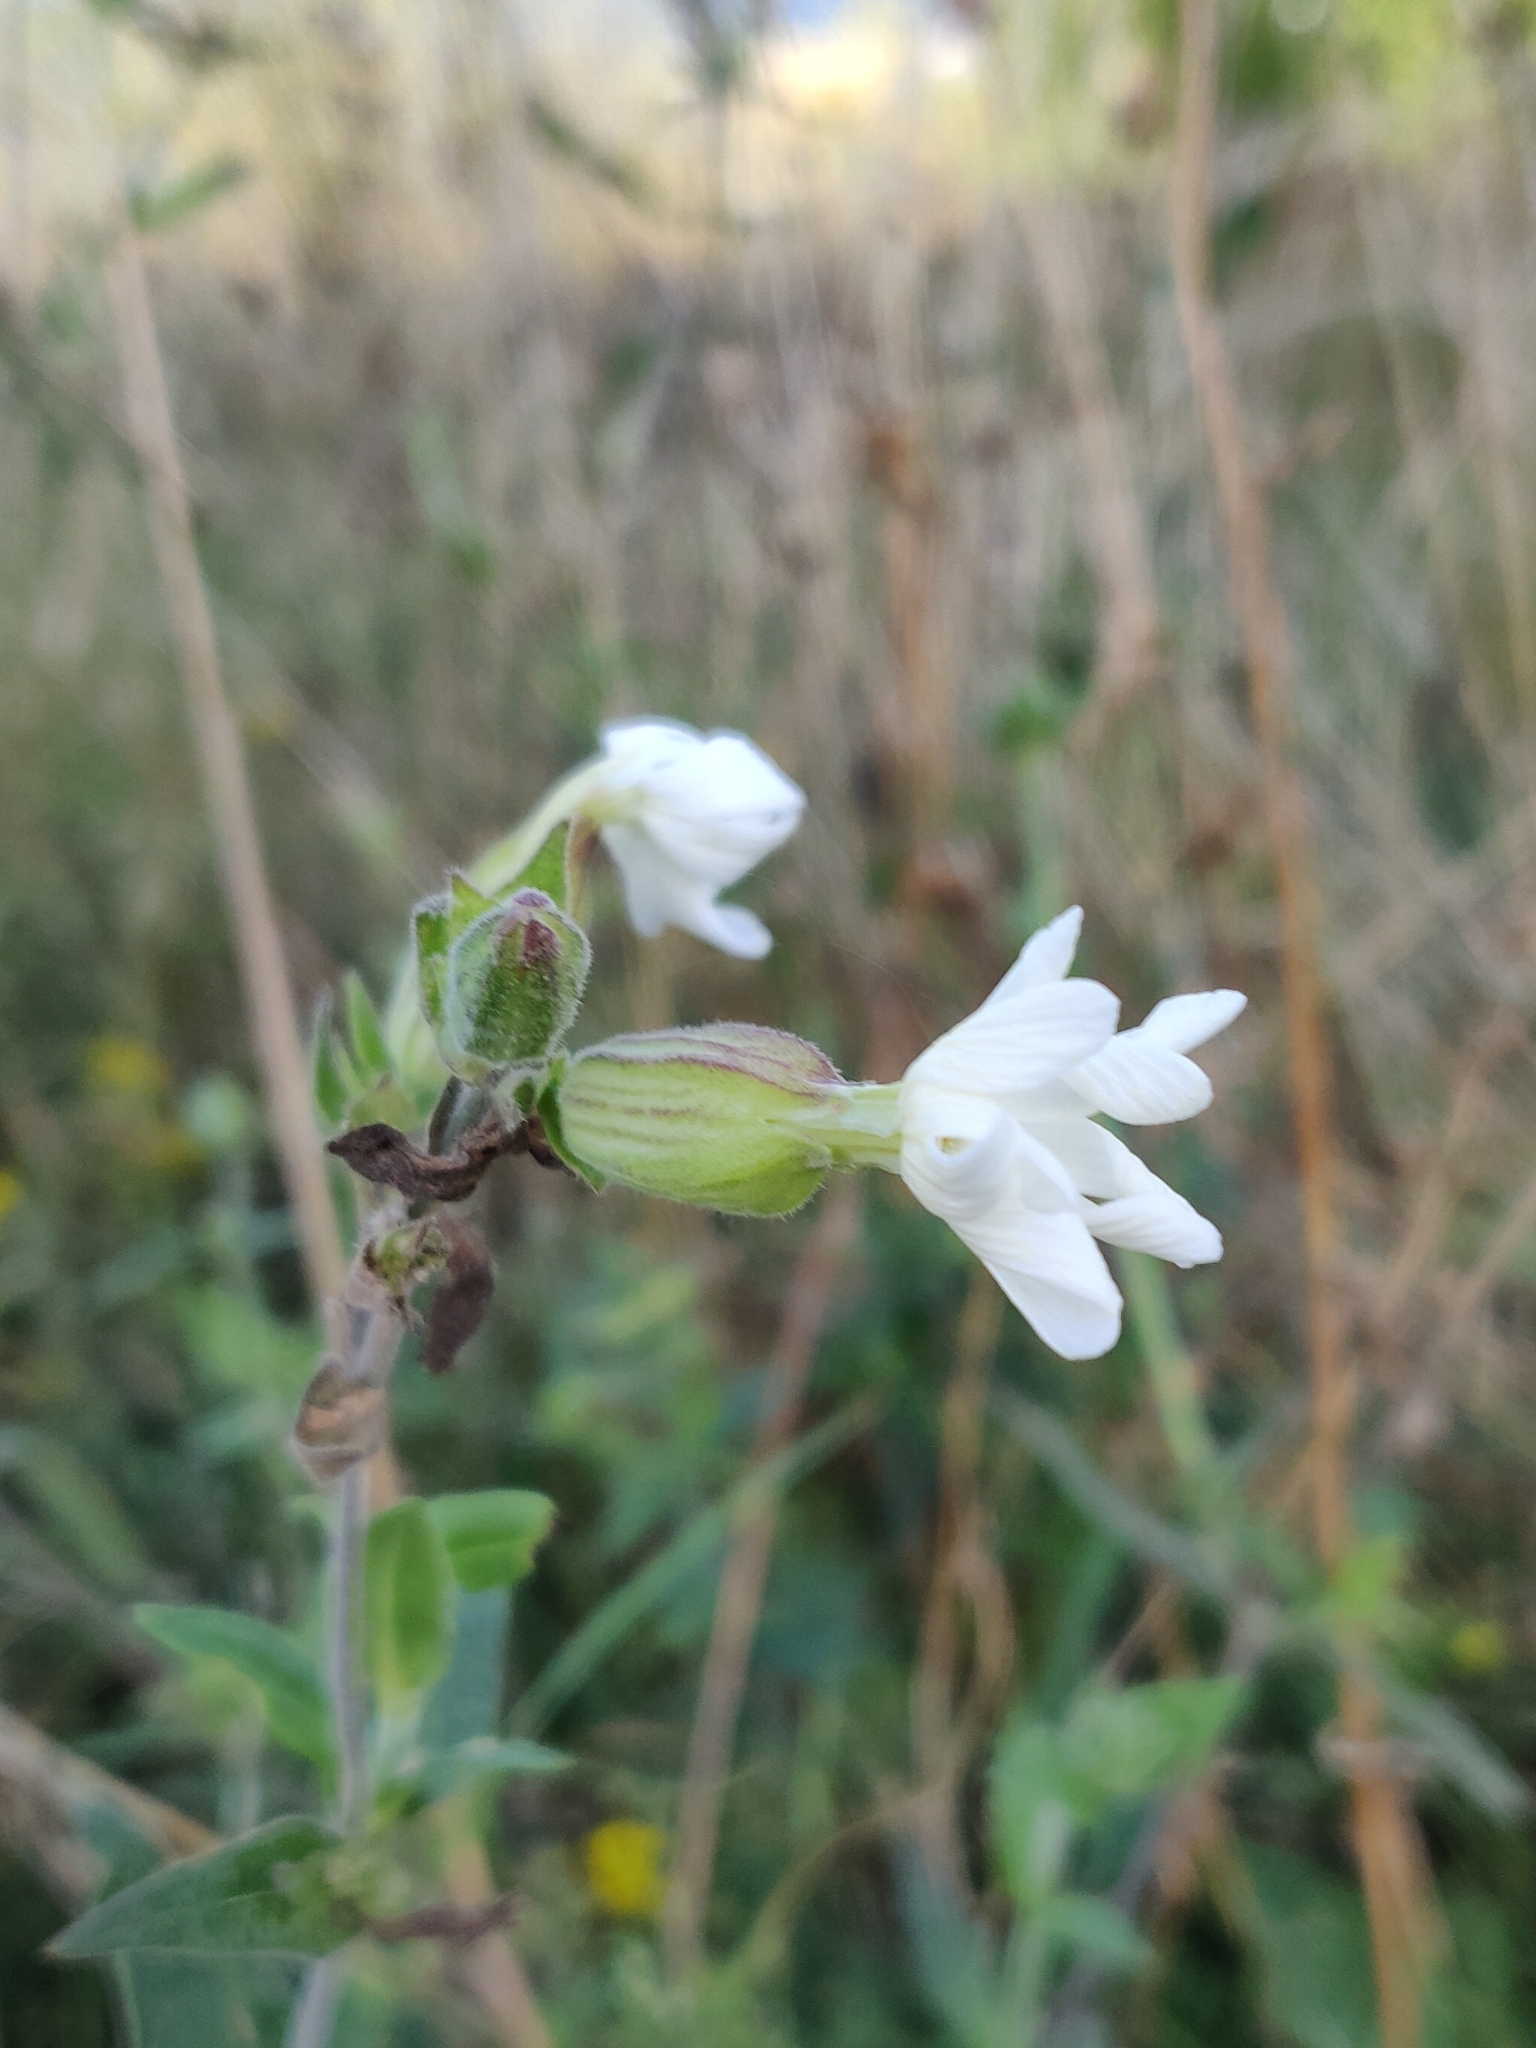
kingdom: Plantae
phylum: Tracheophyta
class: Magnoliopsida
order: Caryophyllales
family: Caryophyllaceae
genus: Silene
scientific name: Silene latifolia
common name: White campion
